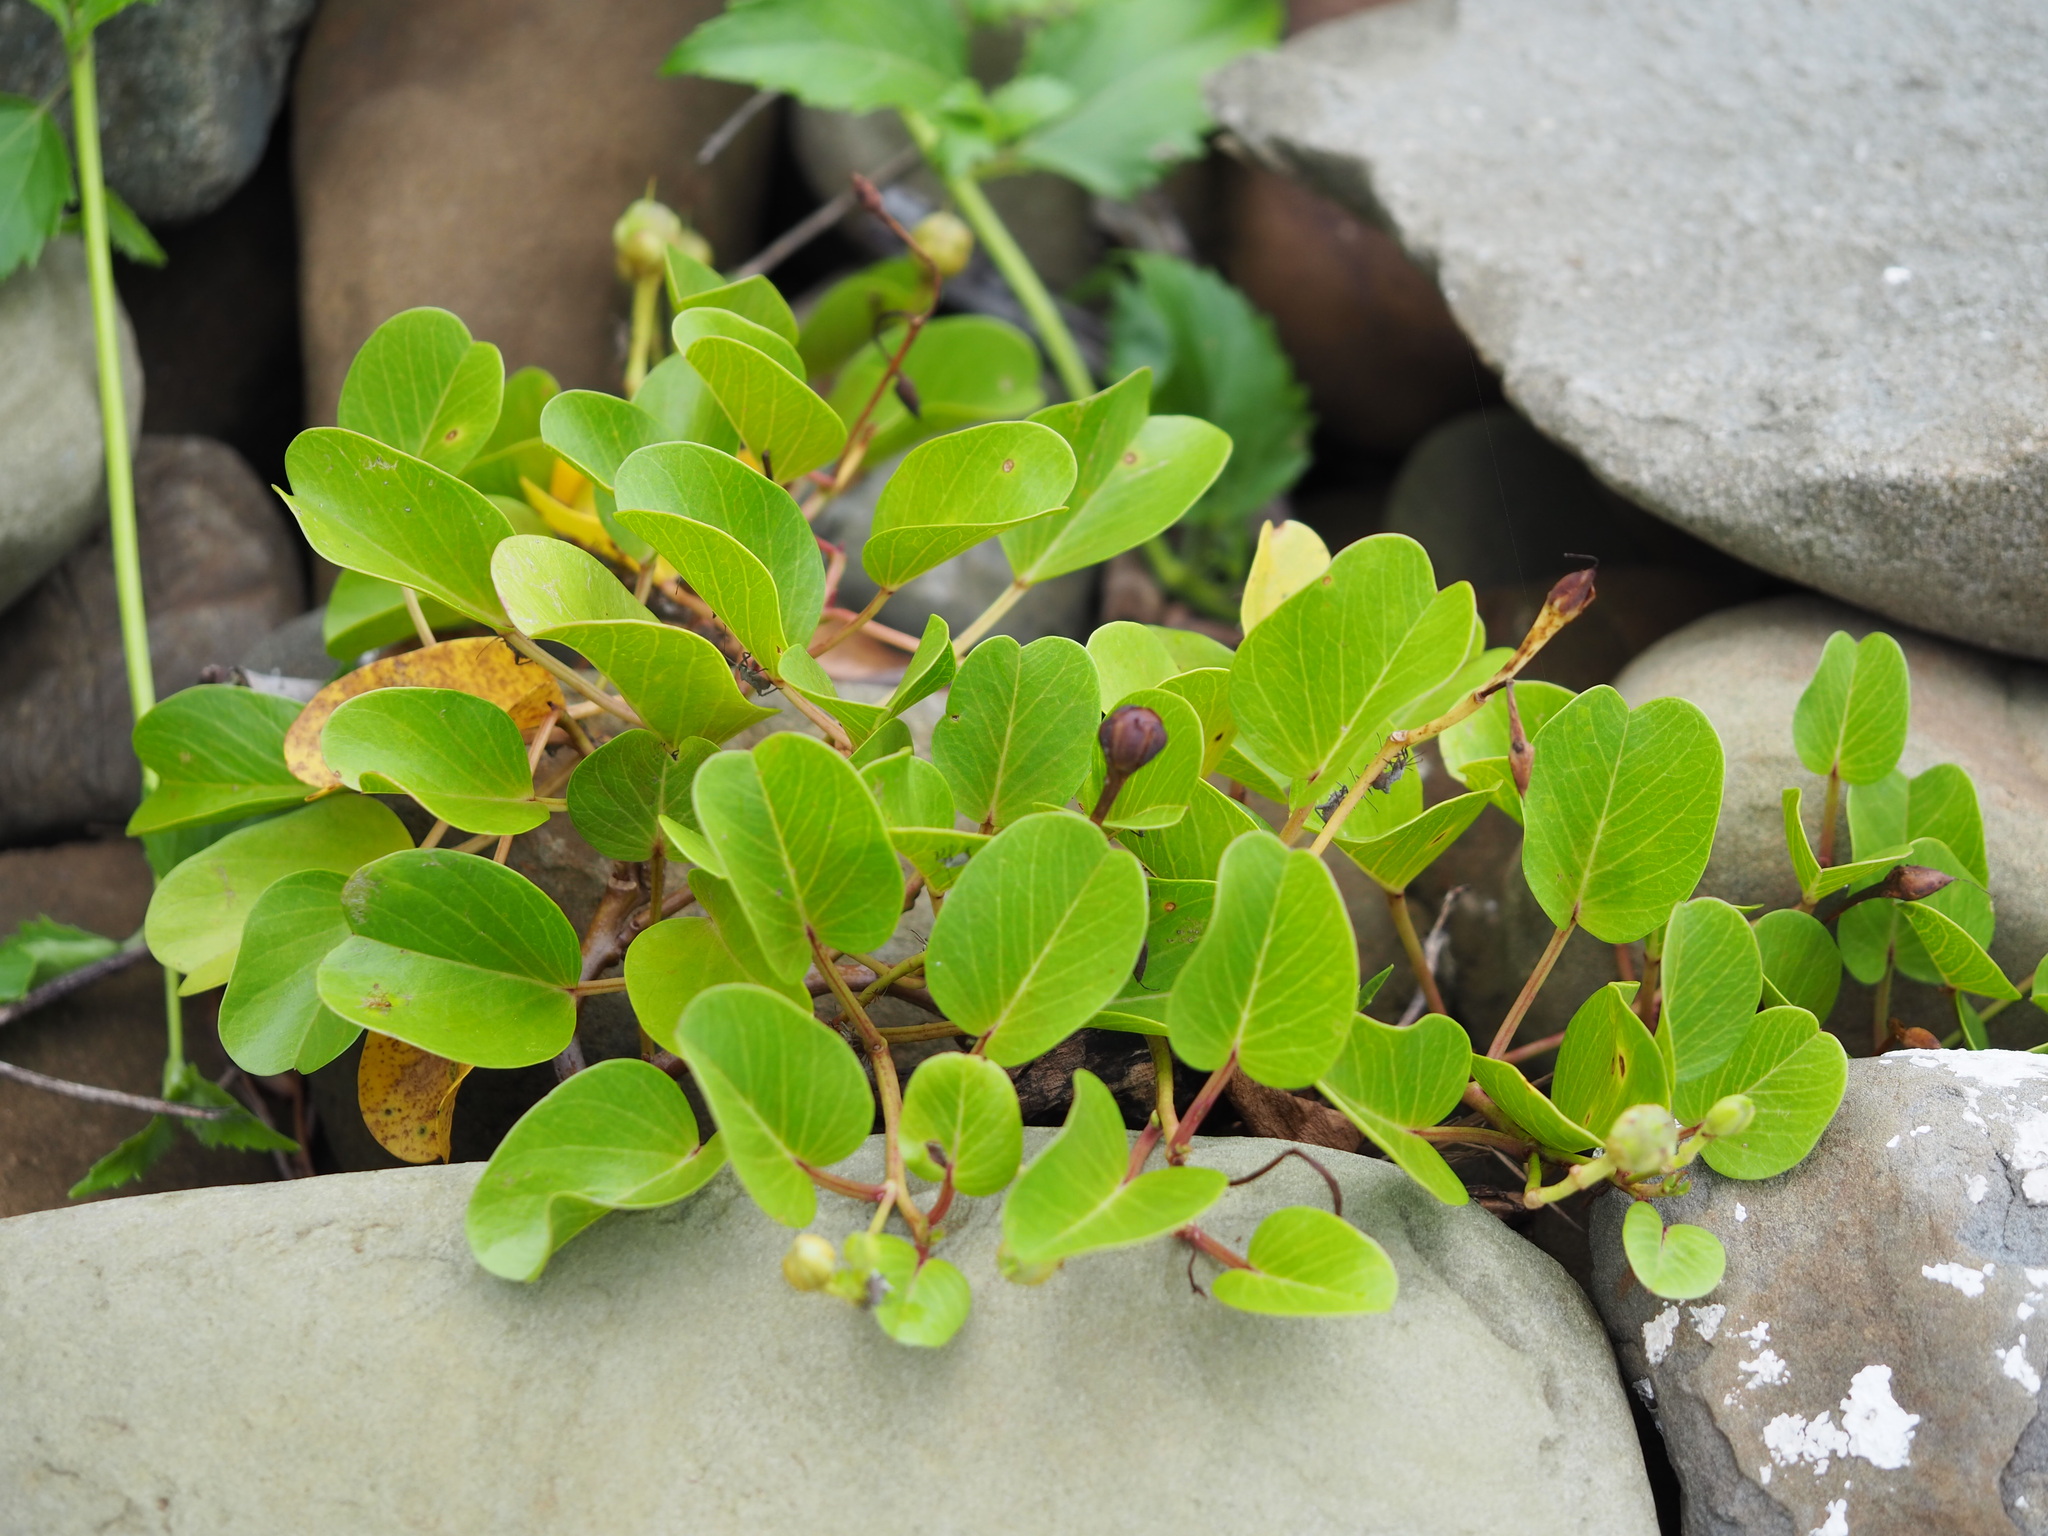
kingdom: Plantae
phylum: Tracheophyta
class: Magnoliopsida
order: Solanales
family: Convolvulaceae
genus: Ipomoea
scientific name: Ipomoea pes-caprae
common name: Beach morning glory
